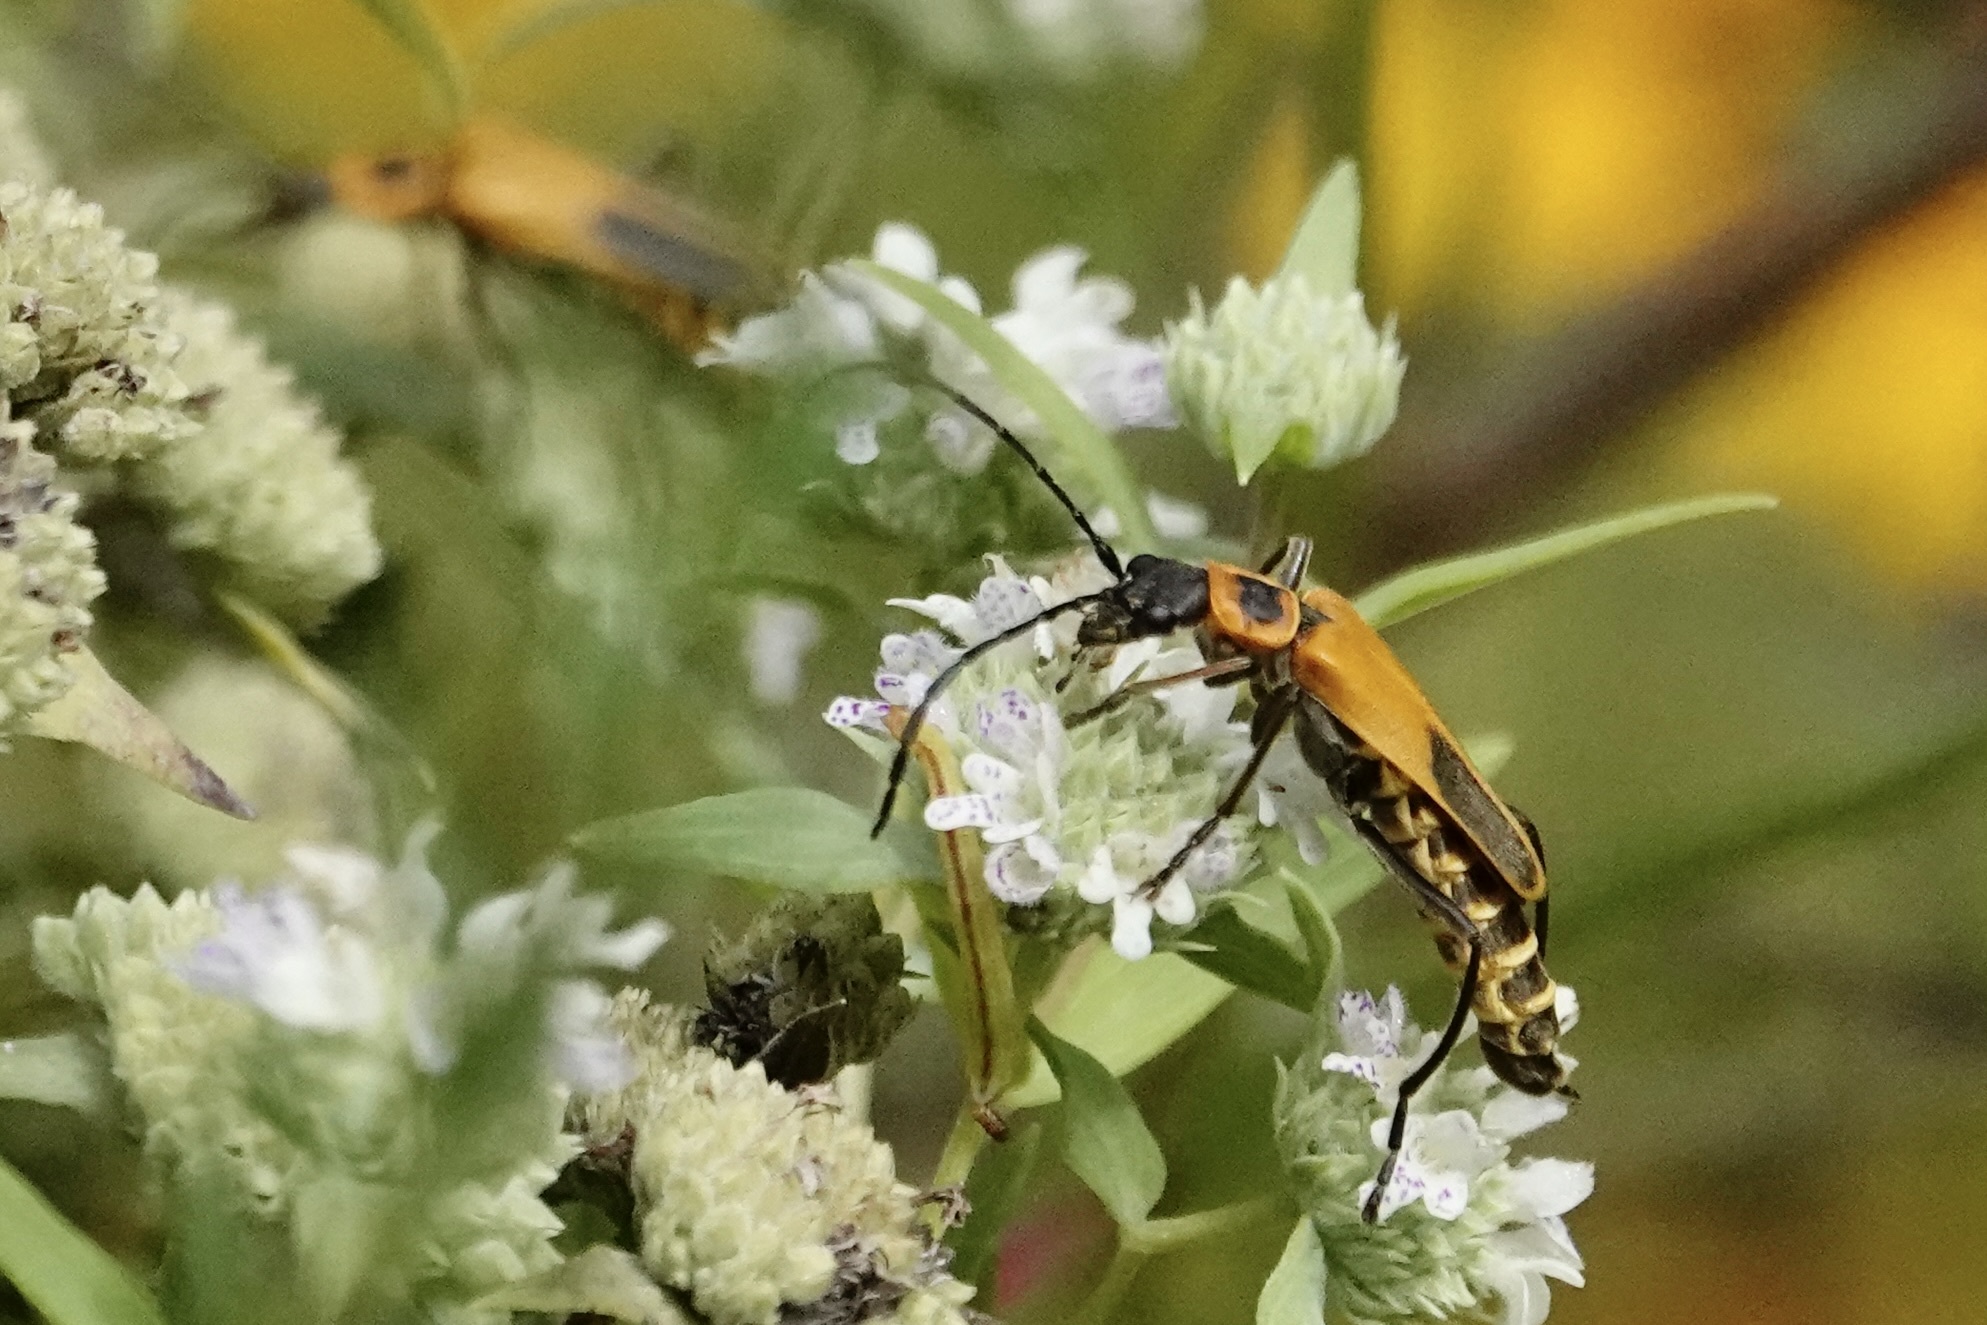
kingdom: Animalia
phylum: Arthropoda
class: Insecta
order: Coleoptera
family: Cantharidae
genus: Chauliognathus
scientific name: Chauliognathus pensylvanicus
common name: Goldenrod soldier beetle
